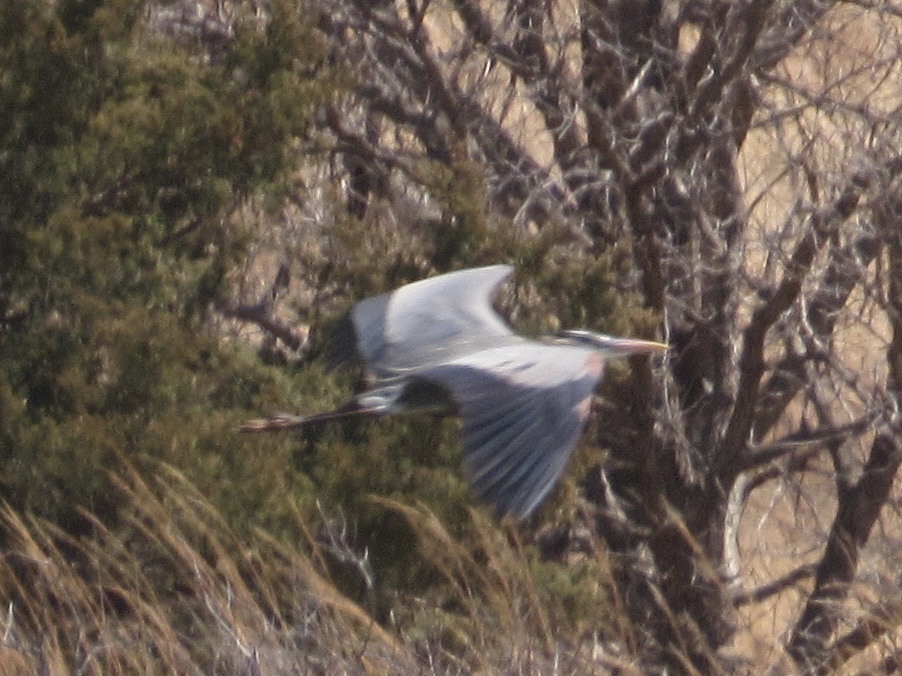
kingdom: Animalia
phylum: Chordata
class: Aves
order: Pelecaniformes
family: Ardeidae
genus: Ardea
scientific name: Ardea herodias
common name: Great blue heron
